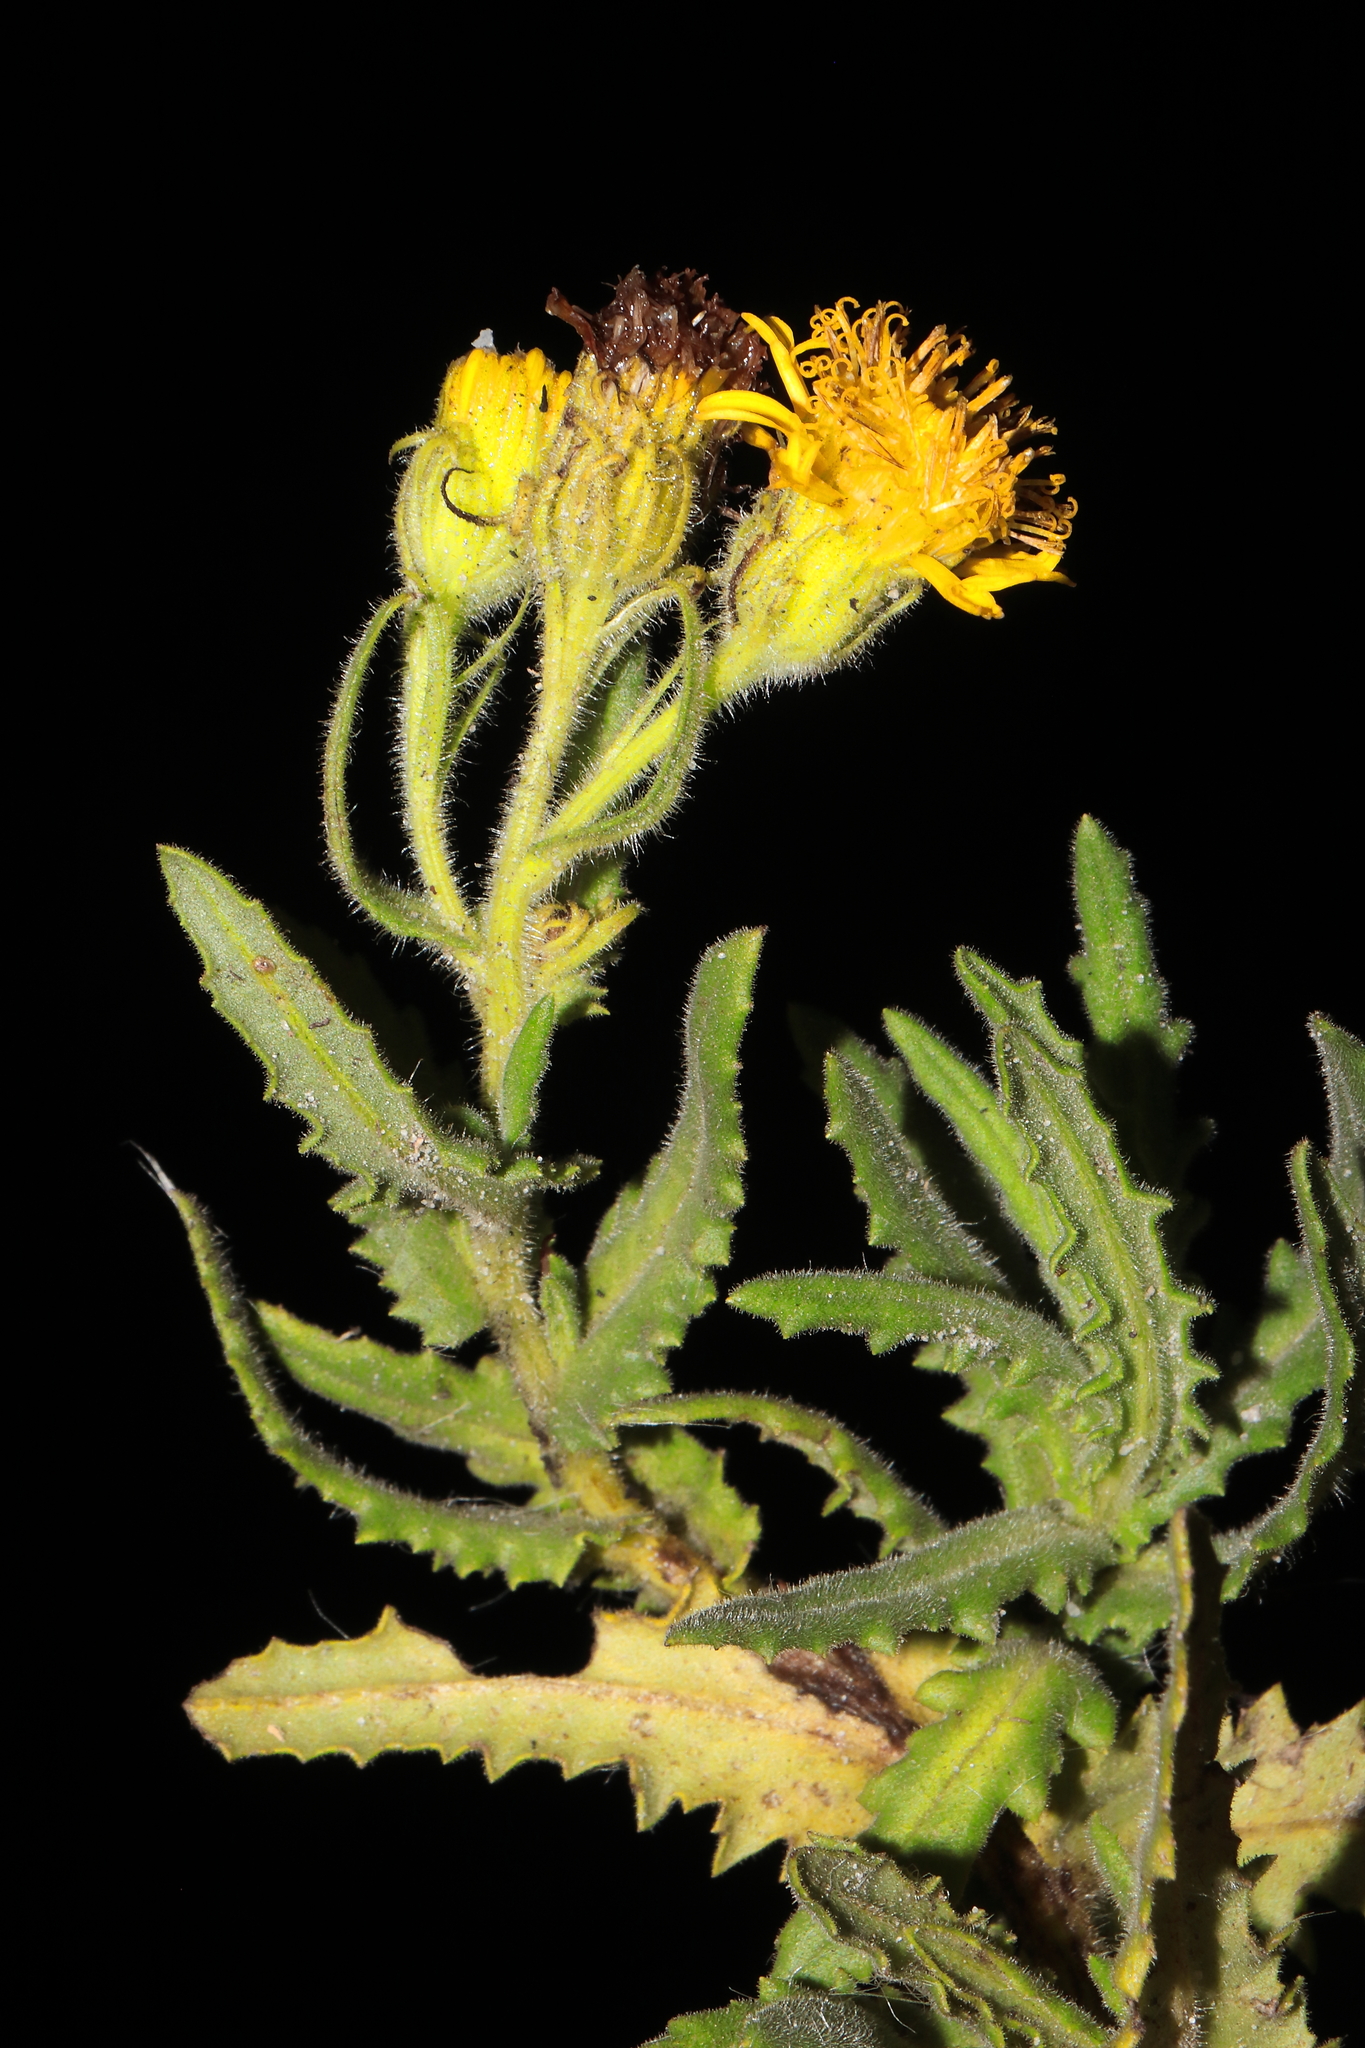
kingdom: Plantae
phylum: Tracheophyta
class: Magnoliopsida
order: Asterales
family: Asteraceae
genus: Senecio
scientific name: Senecio ayapatensis
